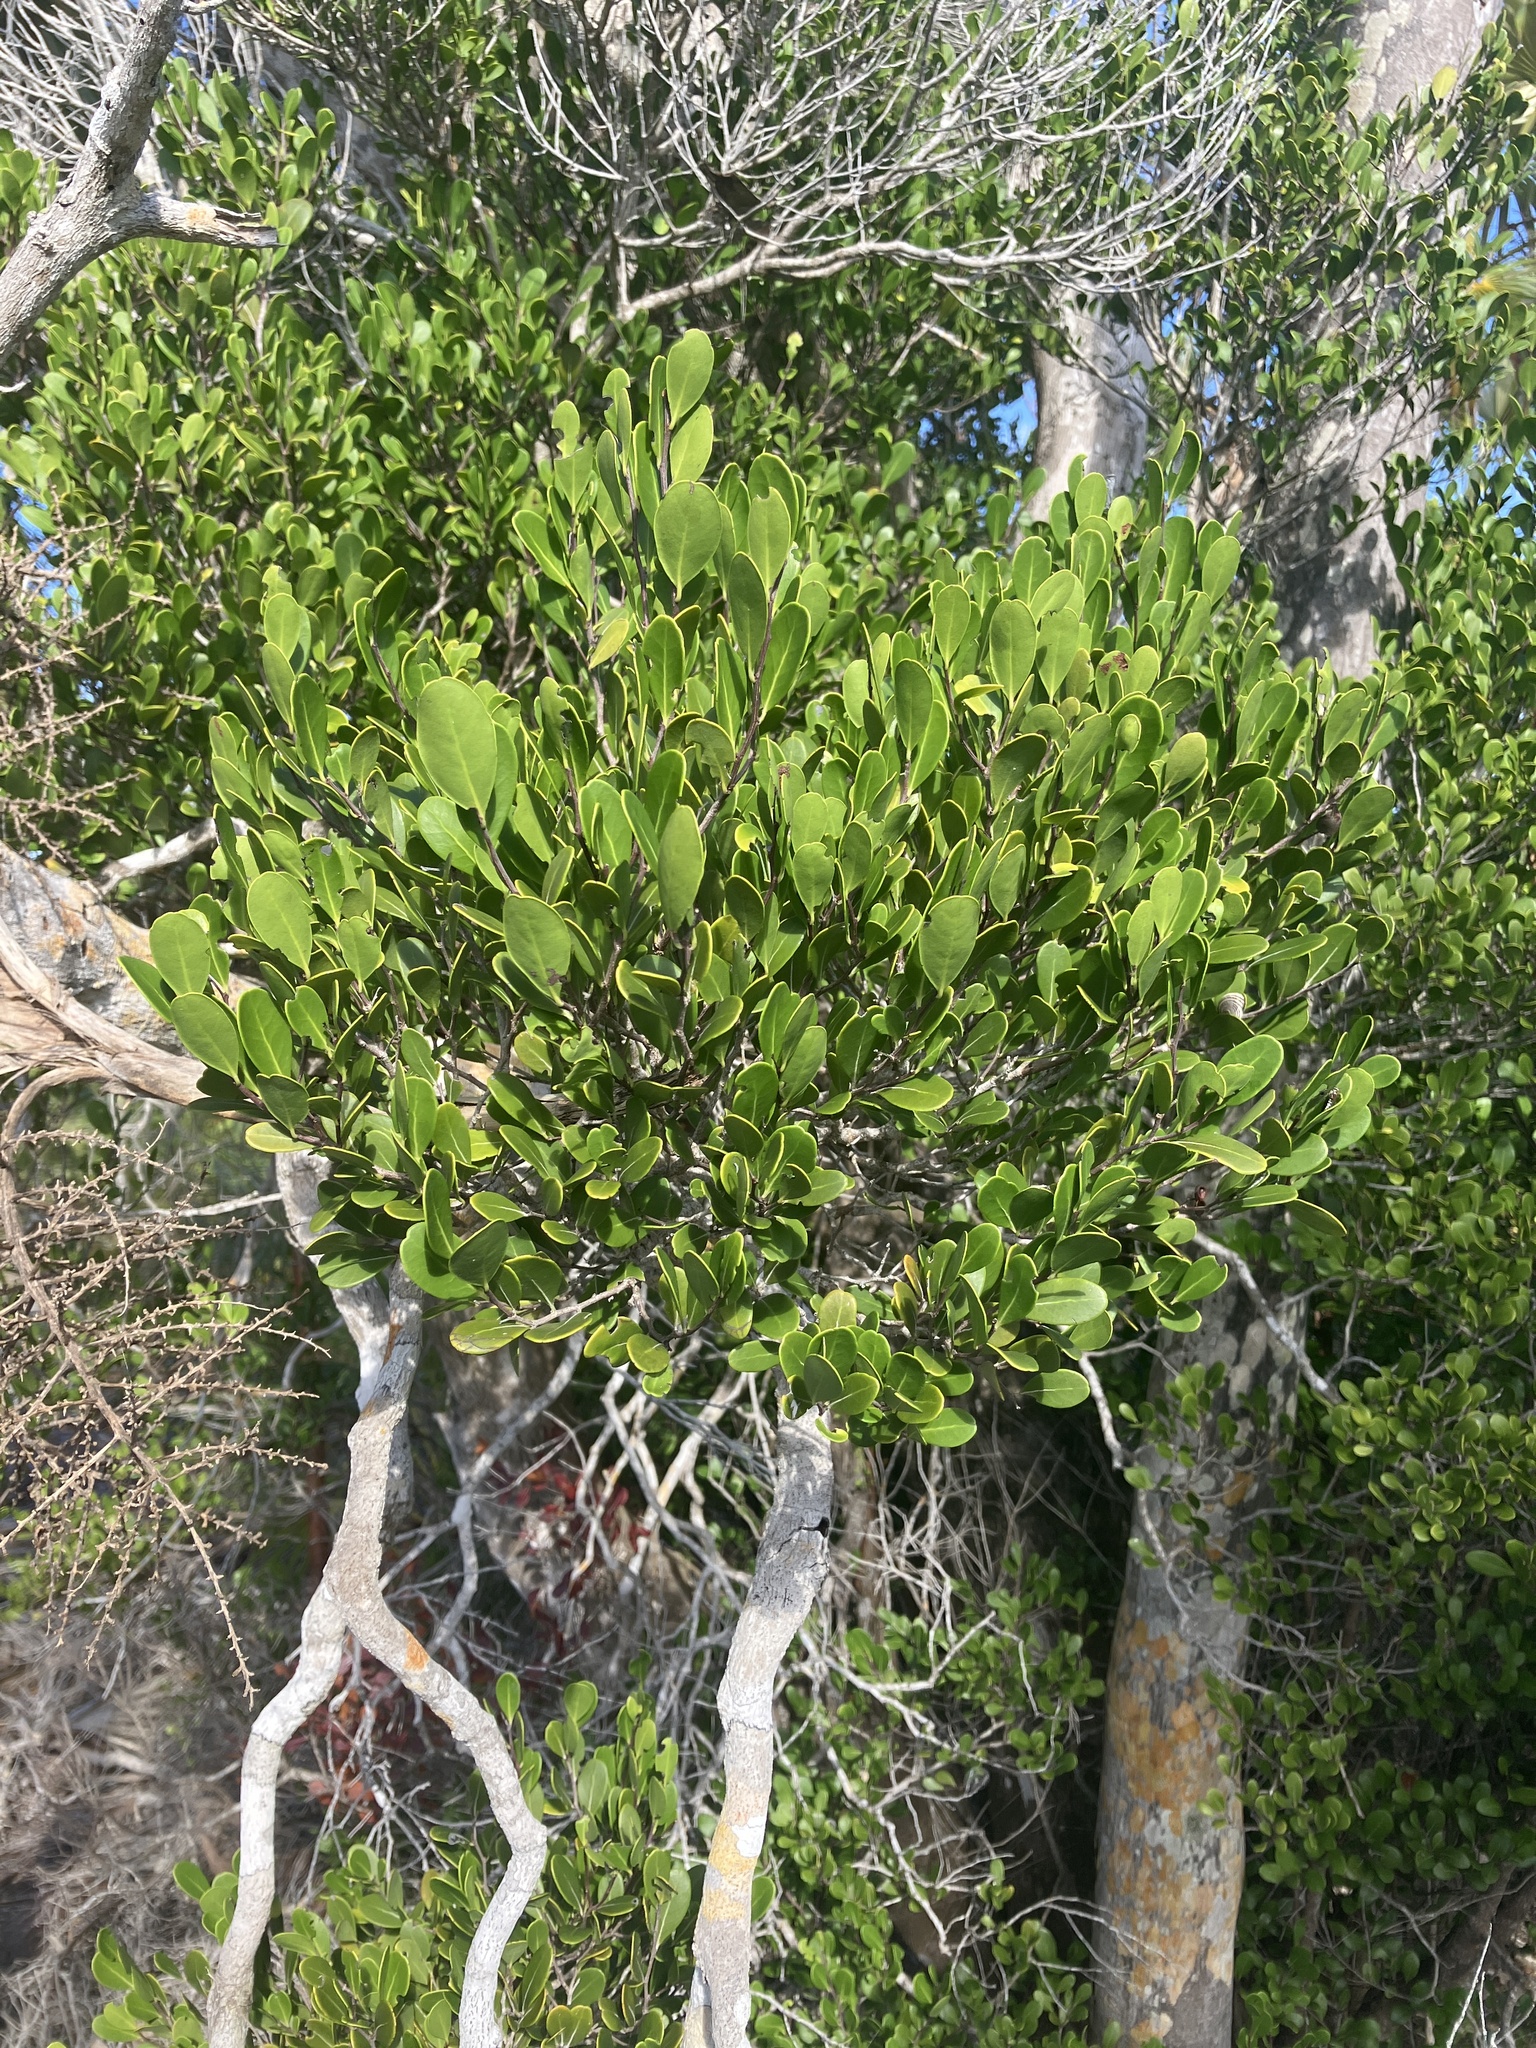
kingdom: Plantae
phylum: Tracheophyta
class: Magnoliopsida
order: Malpighiales
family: Erythroxylaceae
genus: Erythroxylum
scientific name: Erythroxylum rotundifolium
